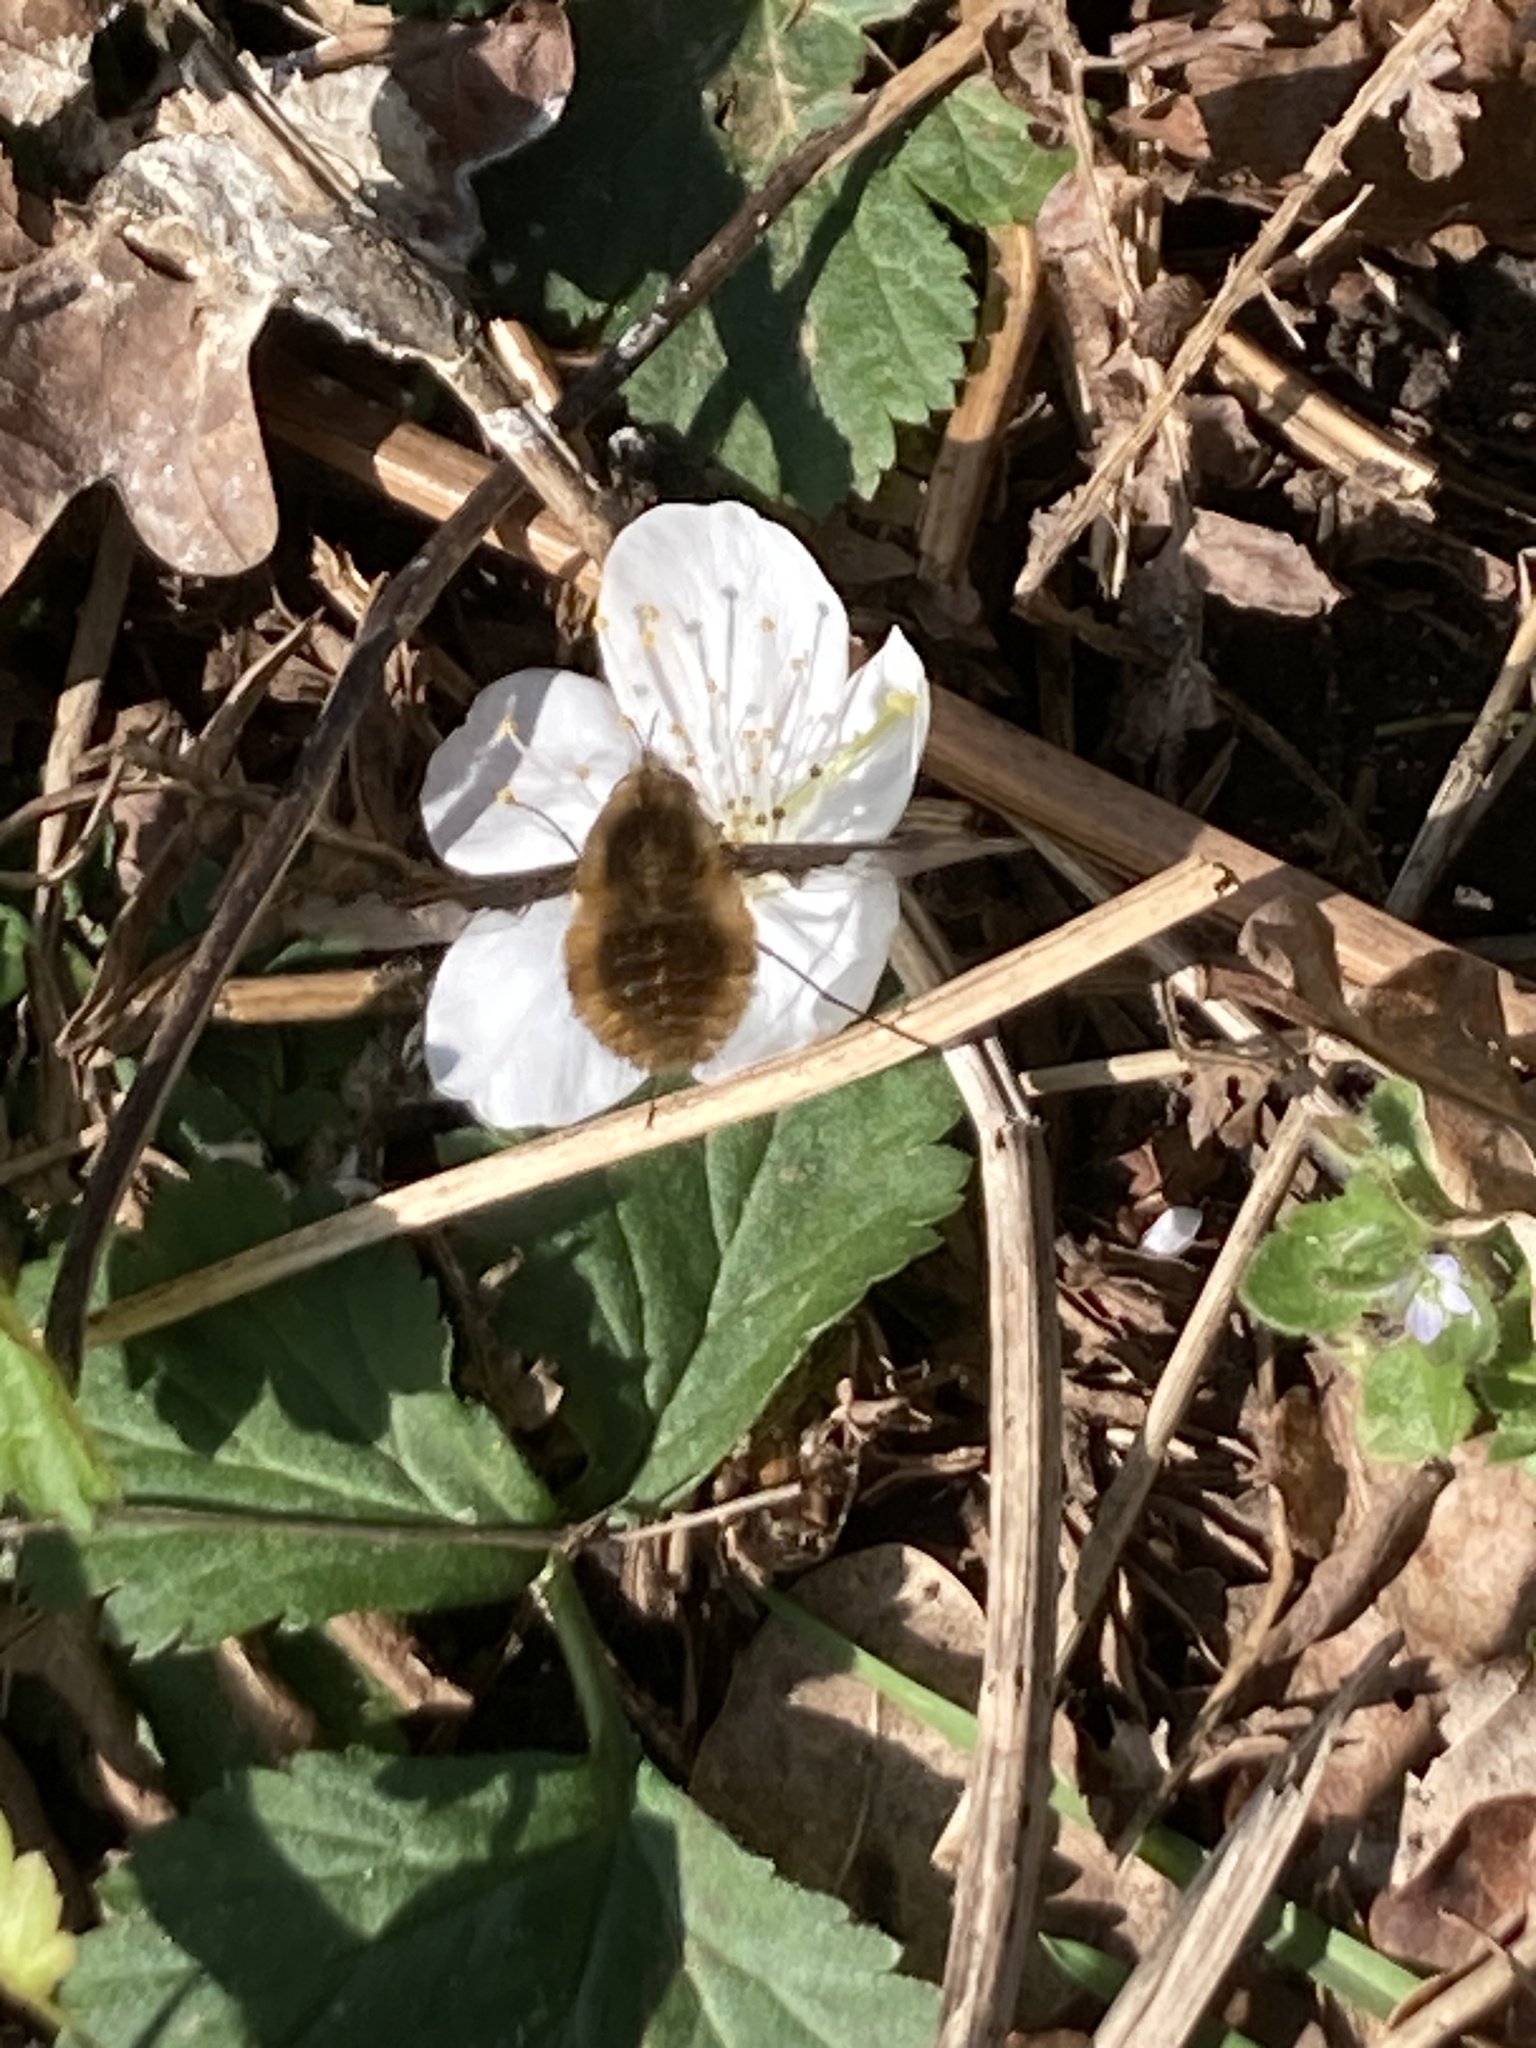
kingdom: Animalia
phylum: Arthropoda
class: Insecta
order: Diptera
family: Bombyliidae
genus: Bombylius
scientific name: Bombylius major
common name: Bee fly
